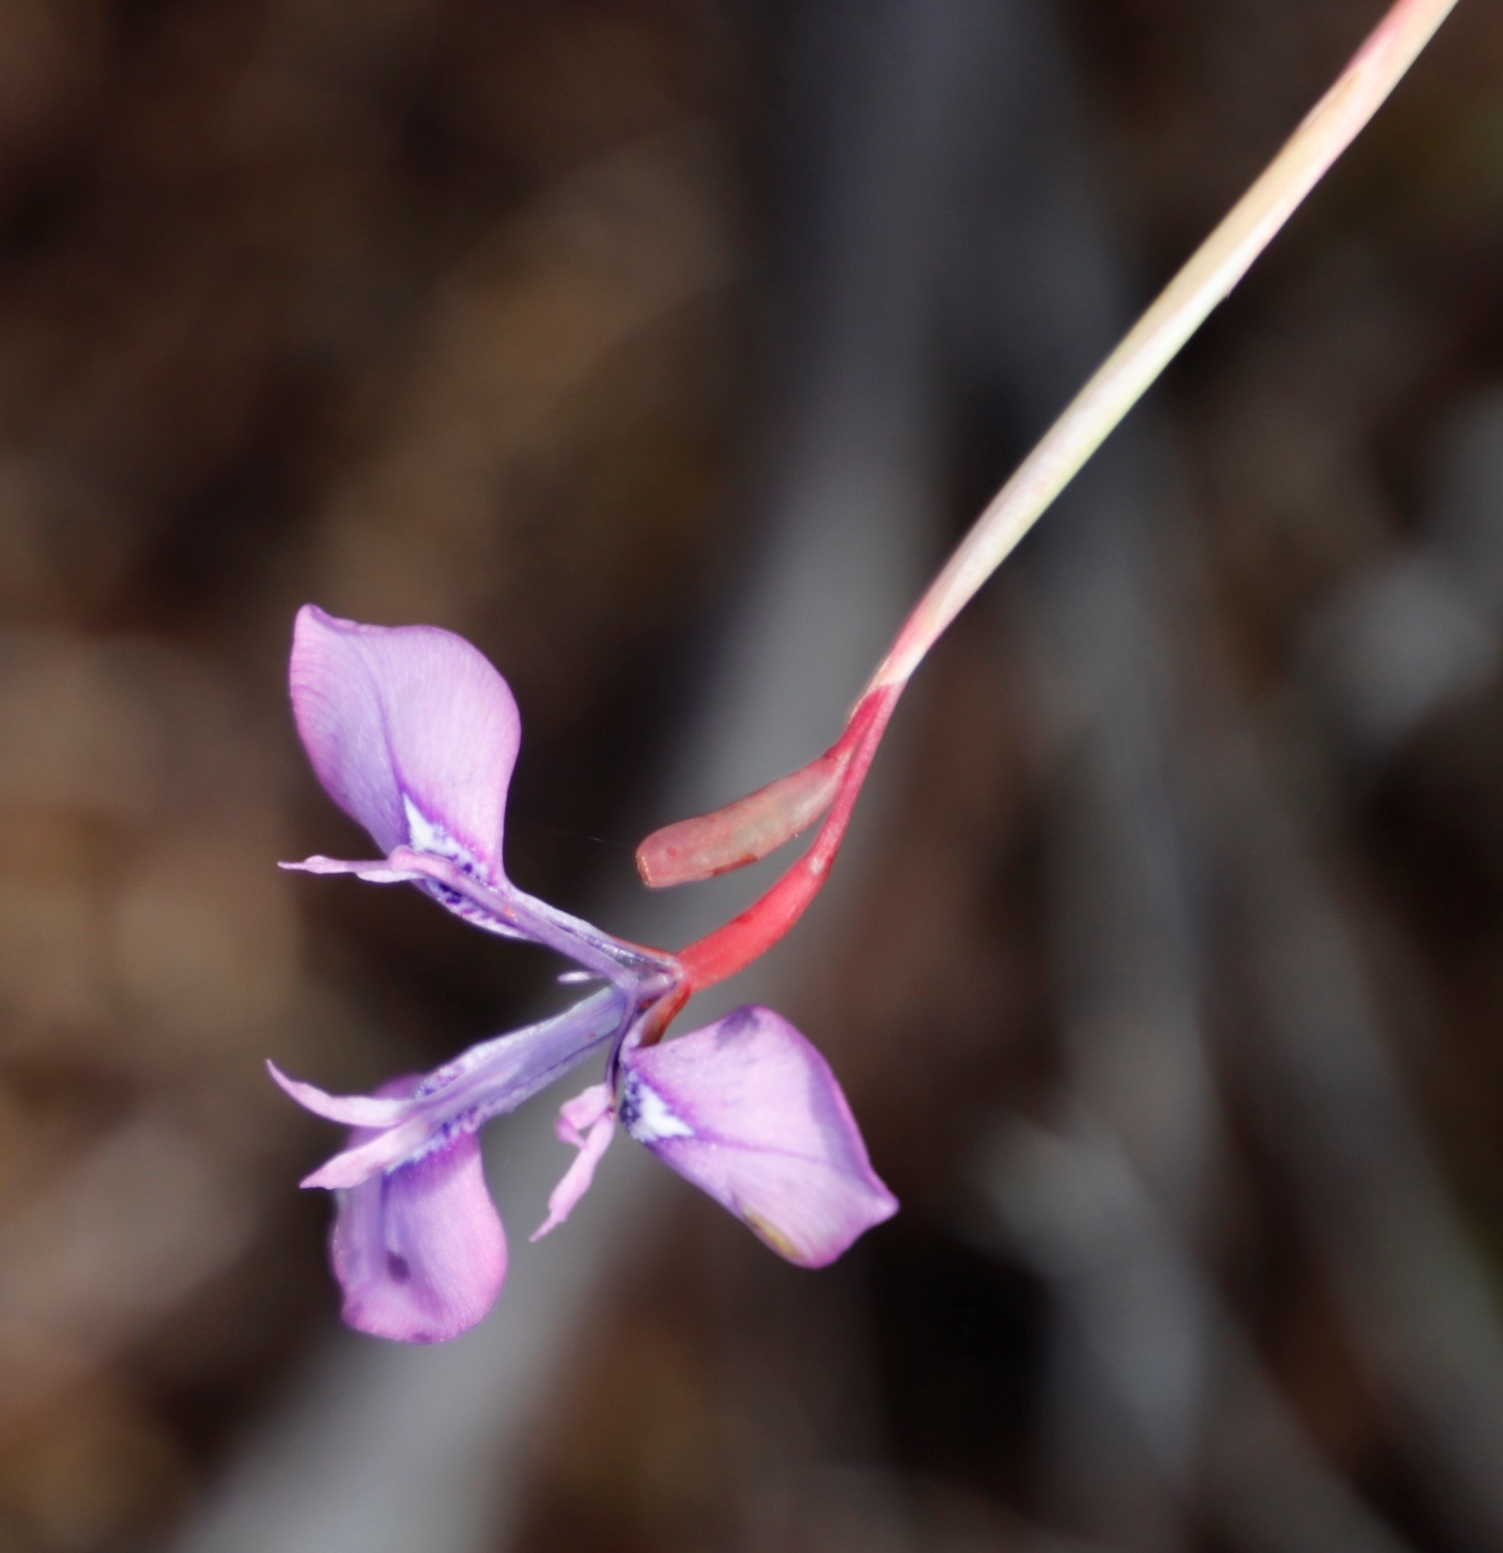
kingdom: Plantae
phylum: Tracheophyta
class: Liliopsida
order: Asparagales
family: Iridaceae
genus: Moraea
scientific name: Moraea tripetala
